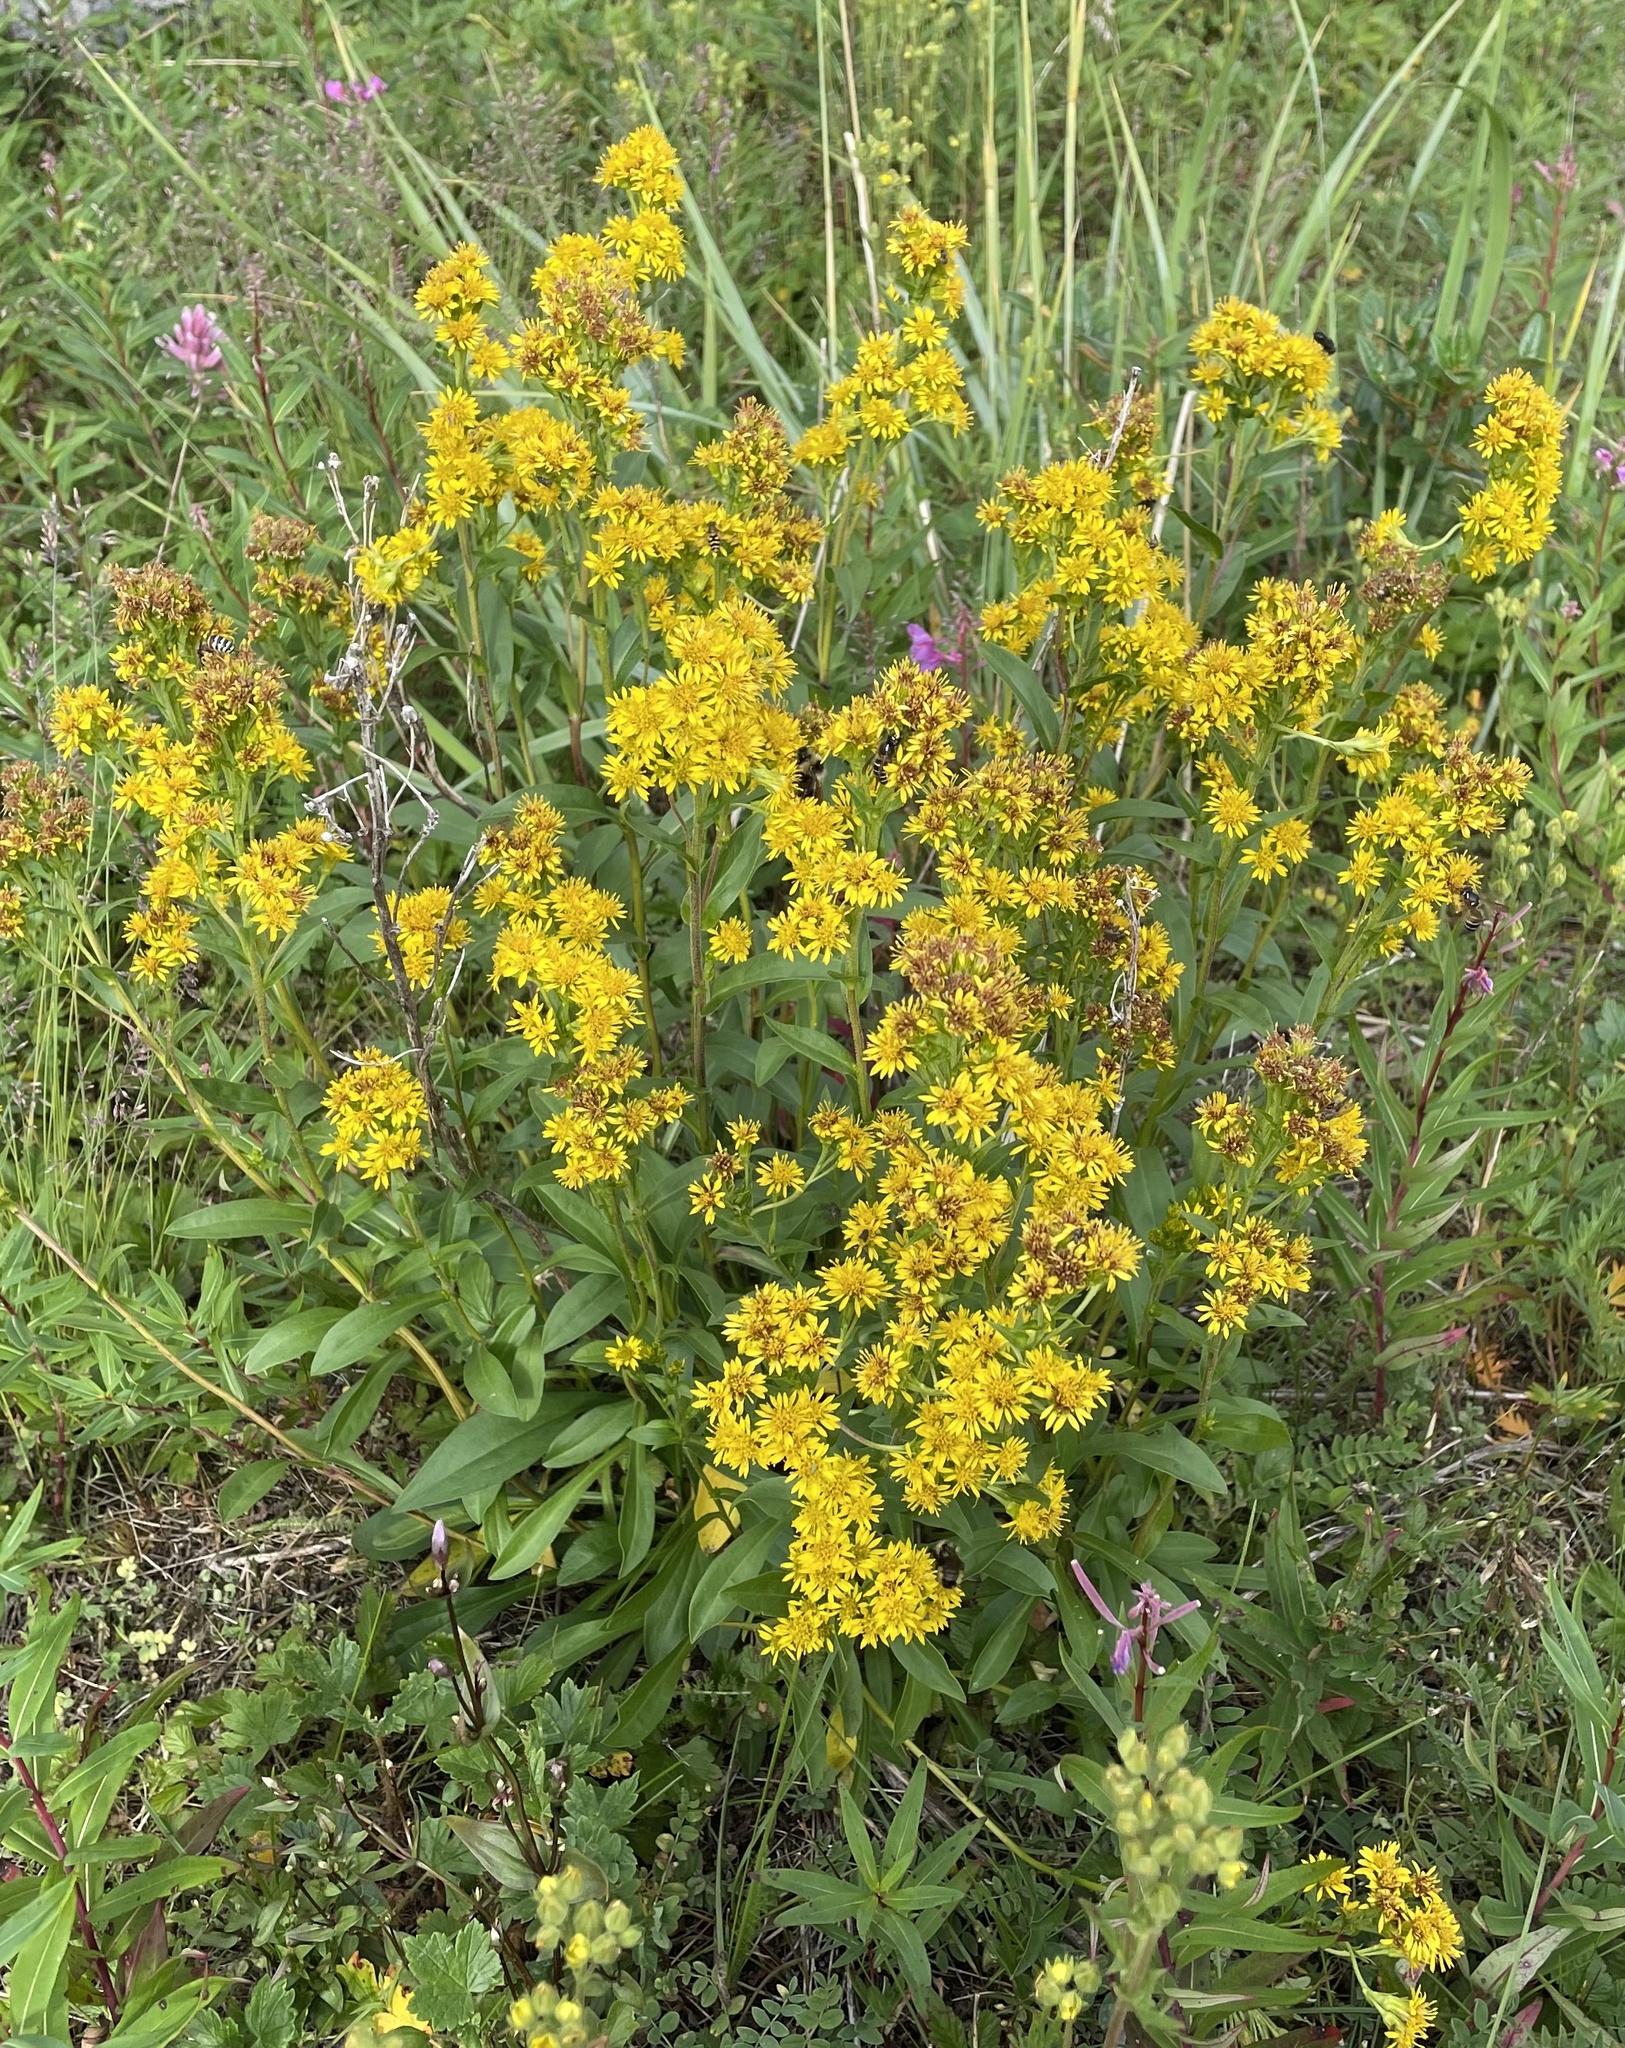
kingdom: Plantae
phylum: Tracheophyta
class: Magnoliopsida
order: Asterales
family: Asteraceae
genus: Solidago
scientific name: Solidago multiradiata
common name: Northern goldenrod
